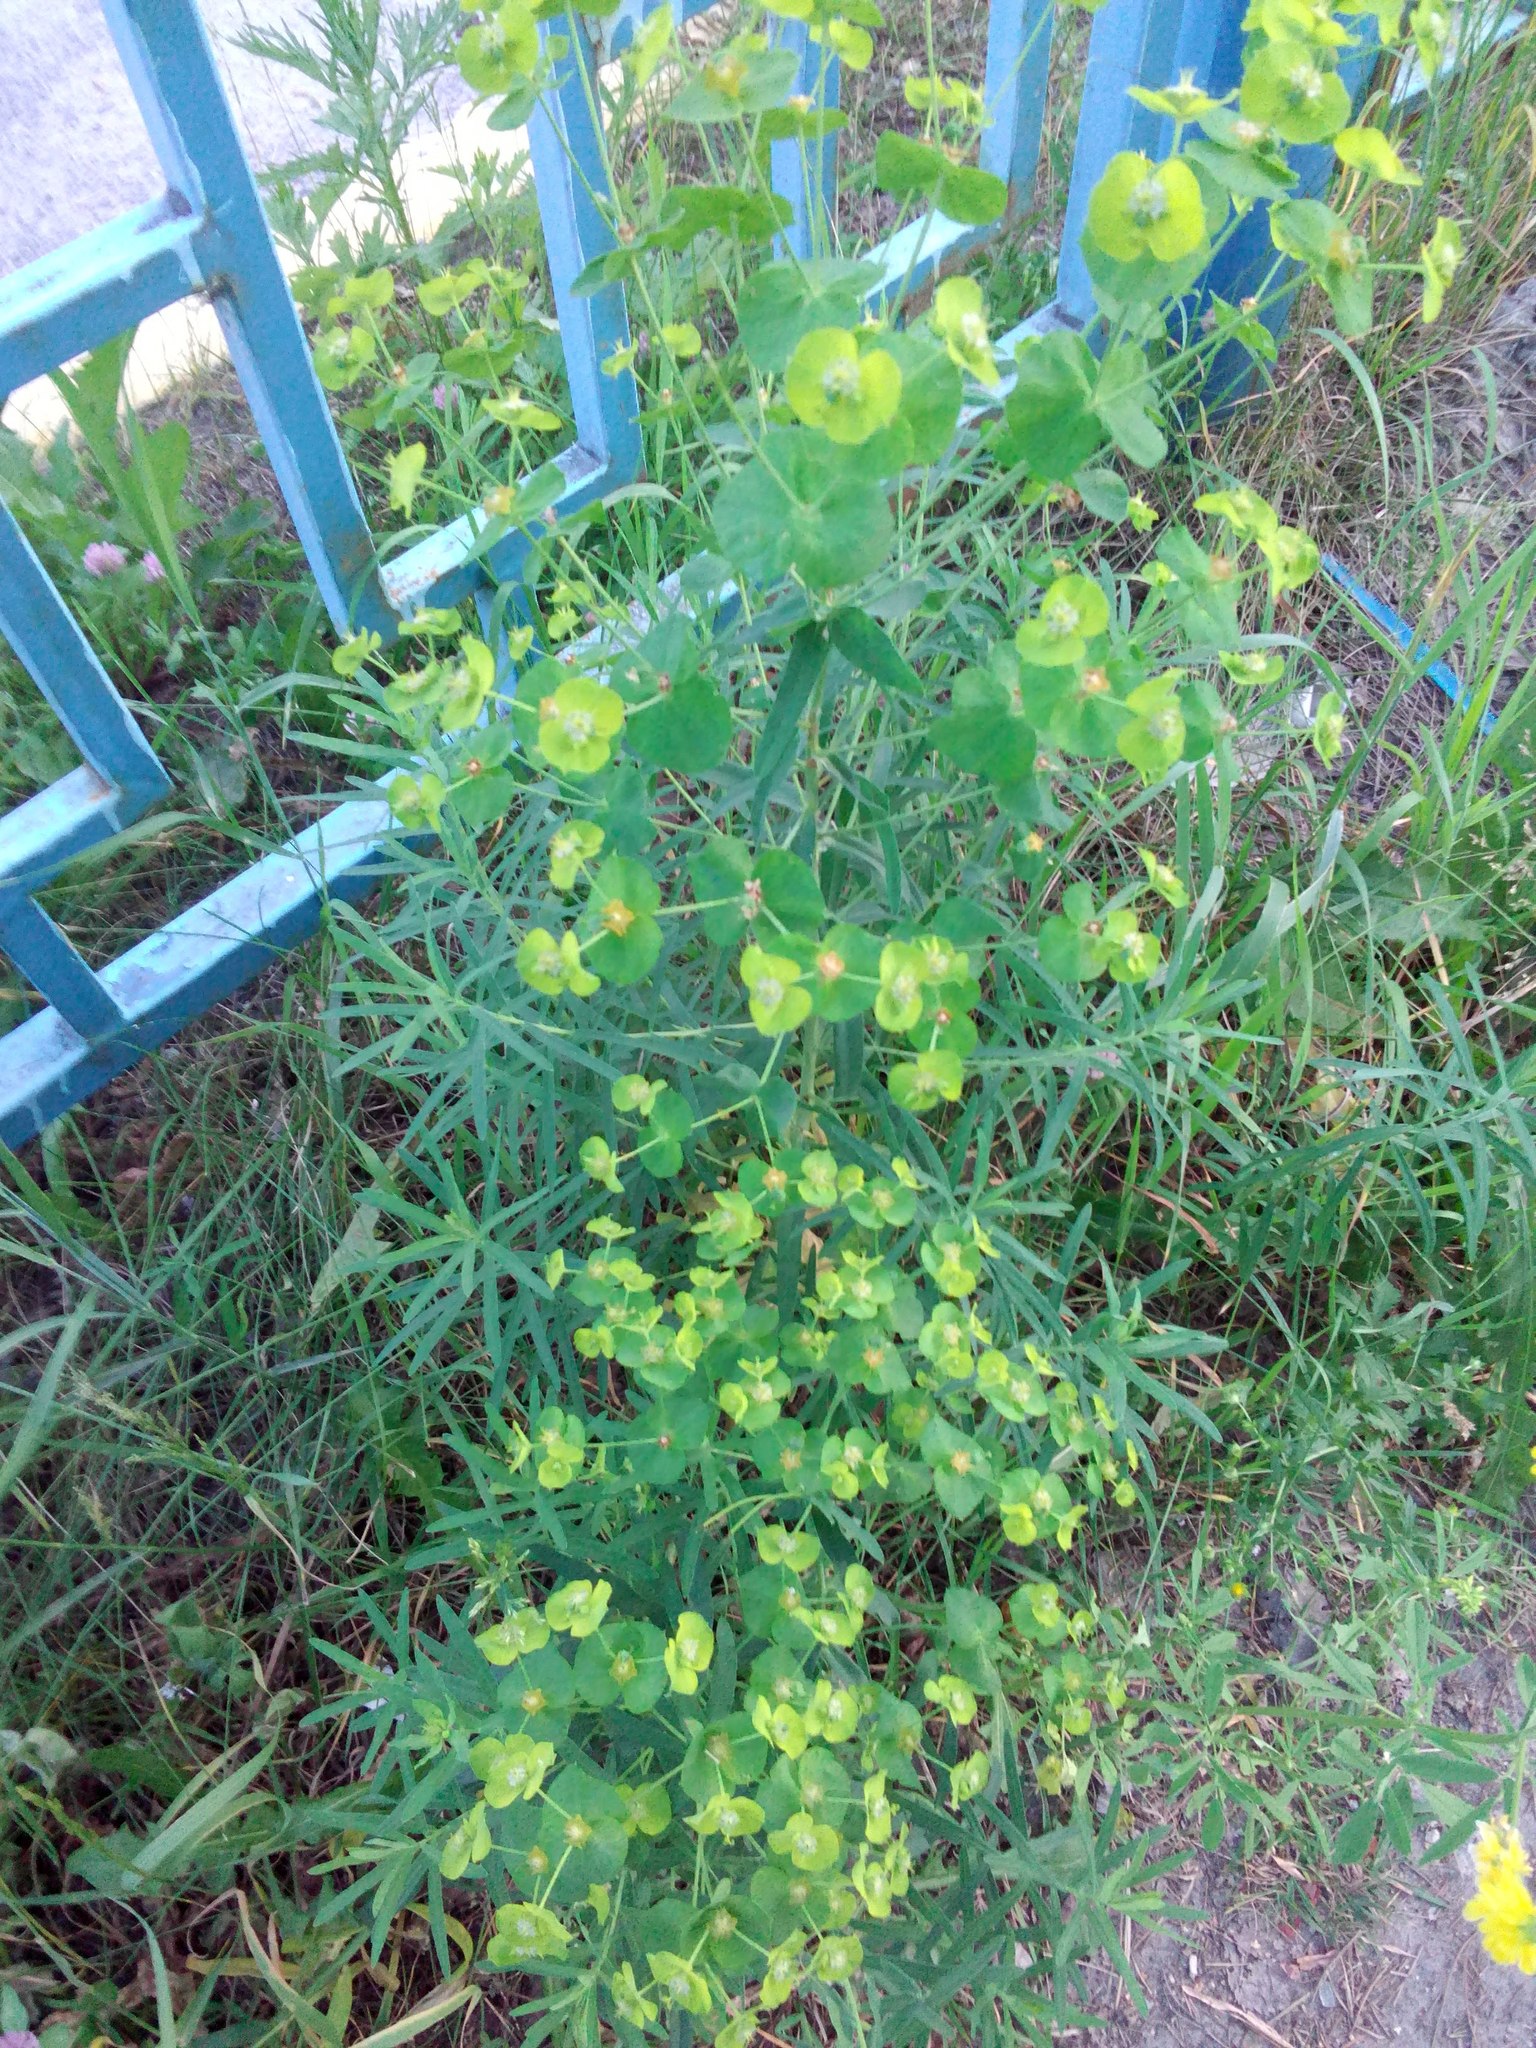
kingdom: Plantae
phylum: Tracheophyta
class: Magnoliopsida
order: Malpighiales
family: Euphorbiaceae
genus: Euphorbia
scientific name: Euphorbia virgata
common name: Leafy spurge
